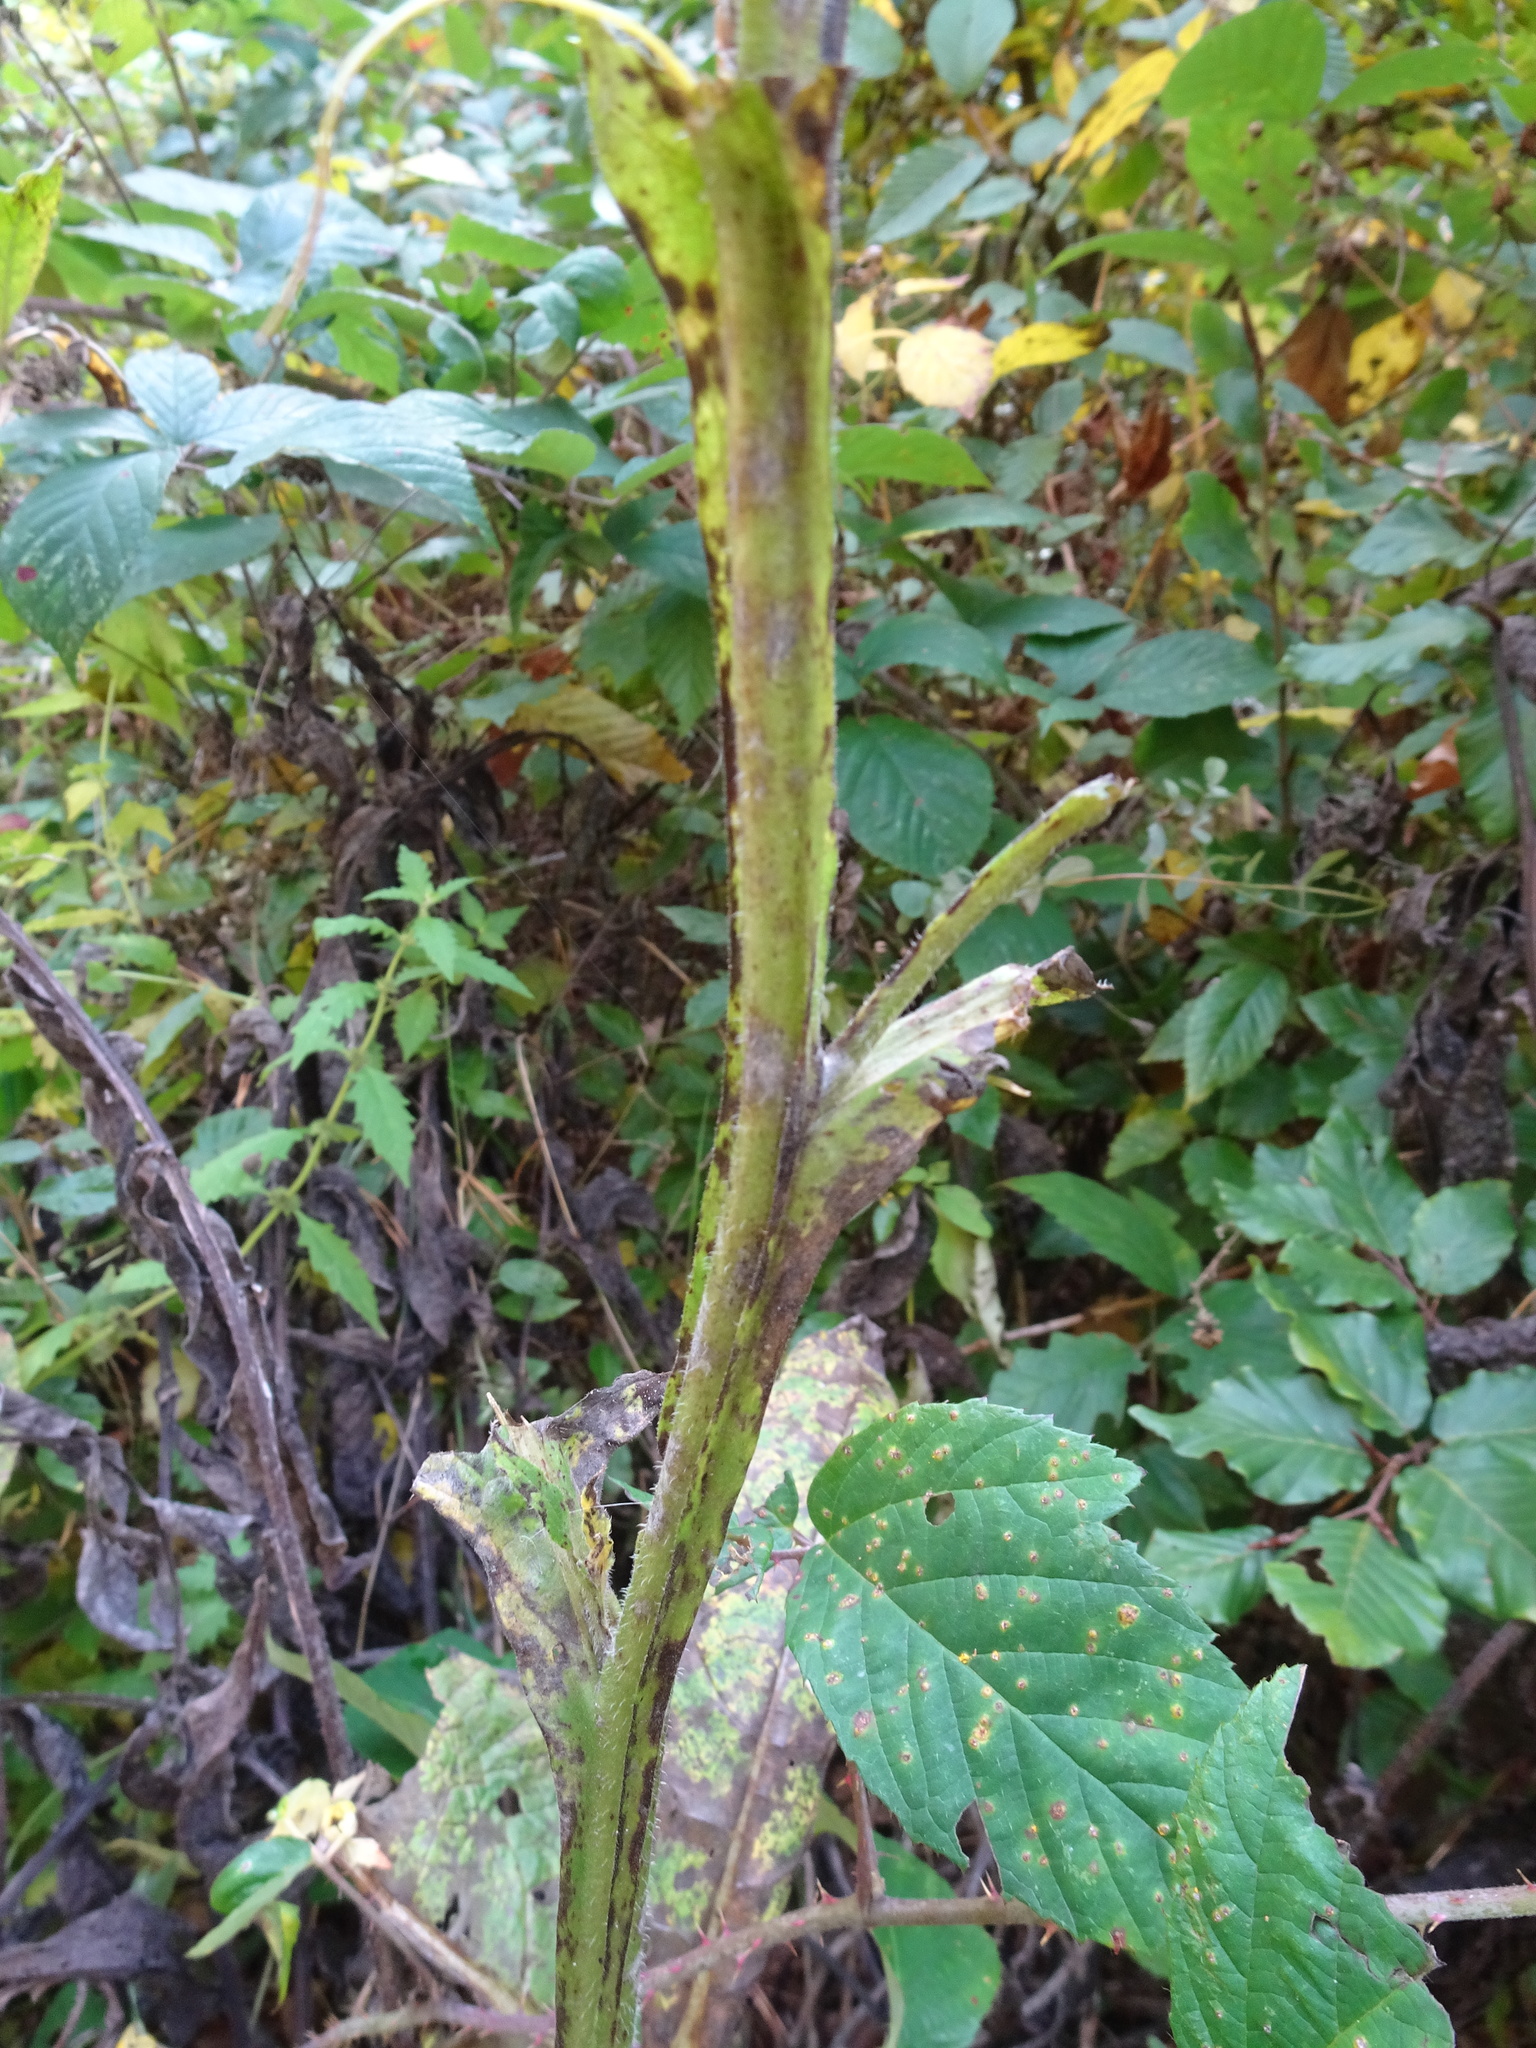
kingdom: Plantae
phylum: Tracheophyta
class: Magnoliopsida
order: Boraginales
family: Boraginaceae
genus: Symphytum
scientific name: Symphytum officinale
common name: Common comfrey
